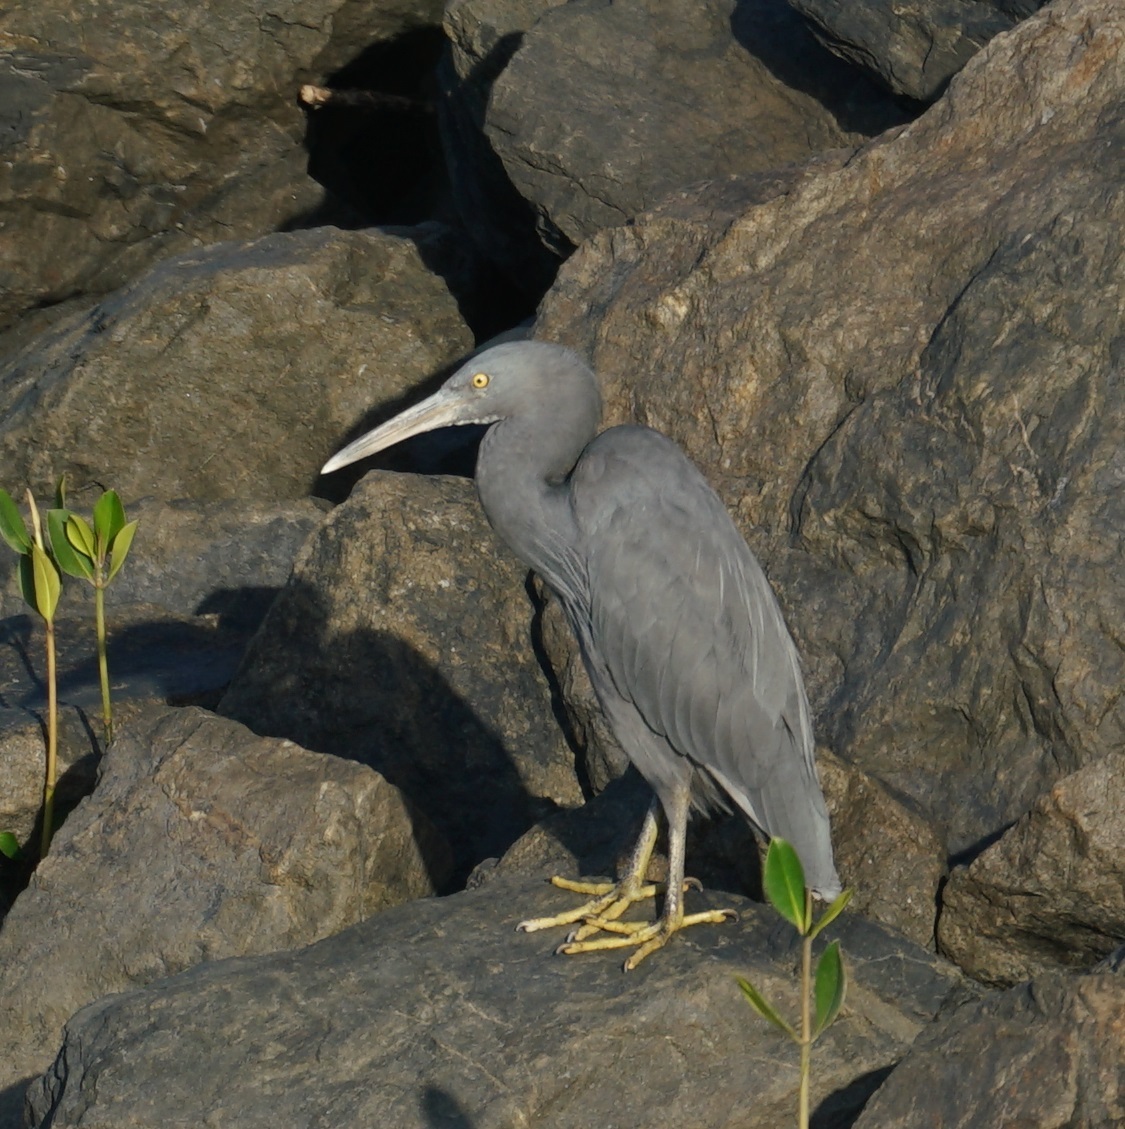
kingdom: Animalia
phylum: Chordata
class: Aves
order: Pelecaniformes
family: Ardeidae
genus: Egretta
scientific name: Egretta sacra
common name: Pacific reef heron
